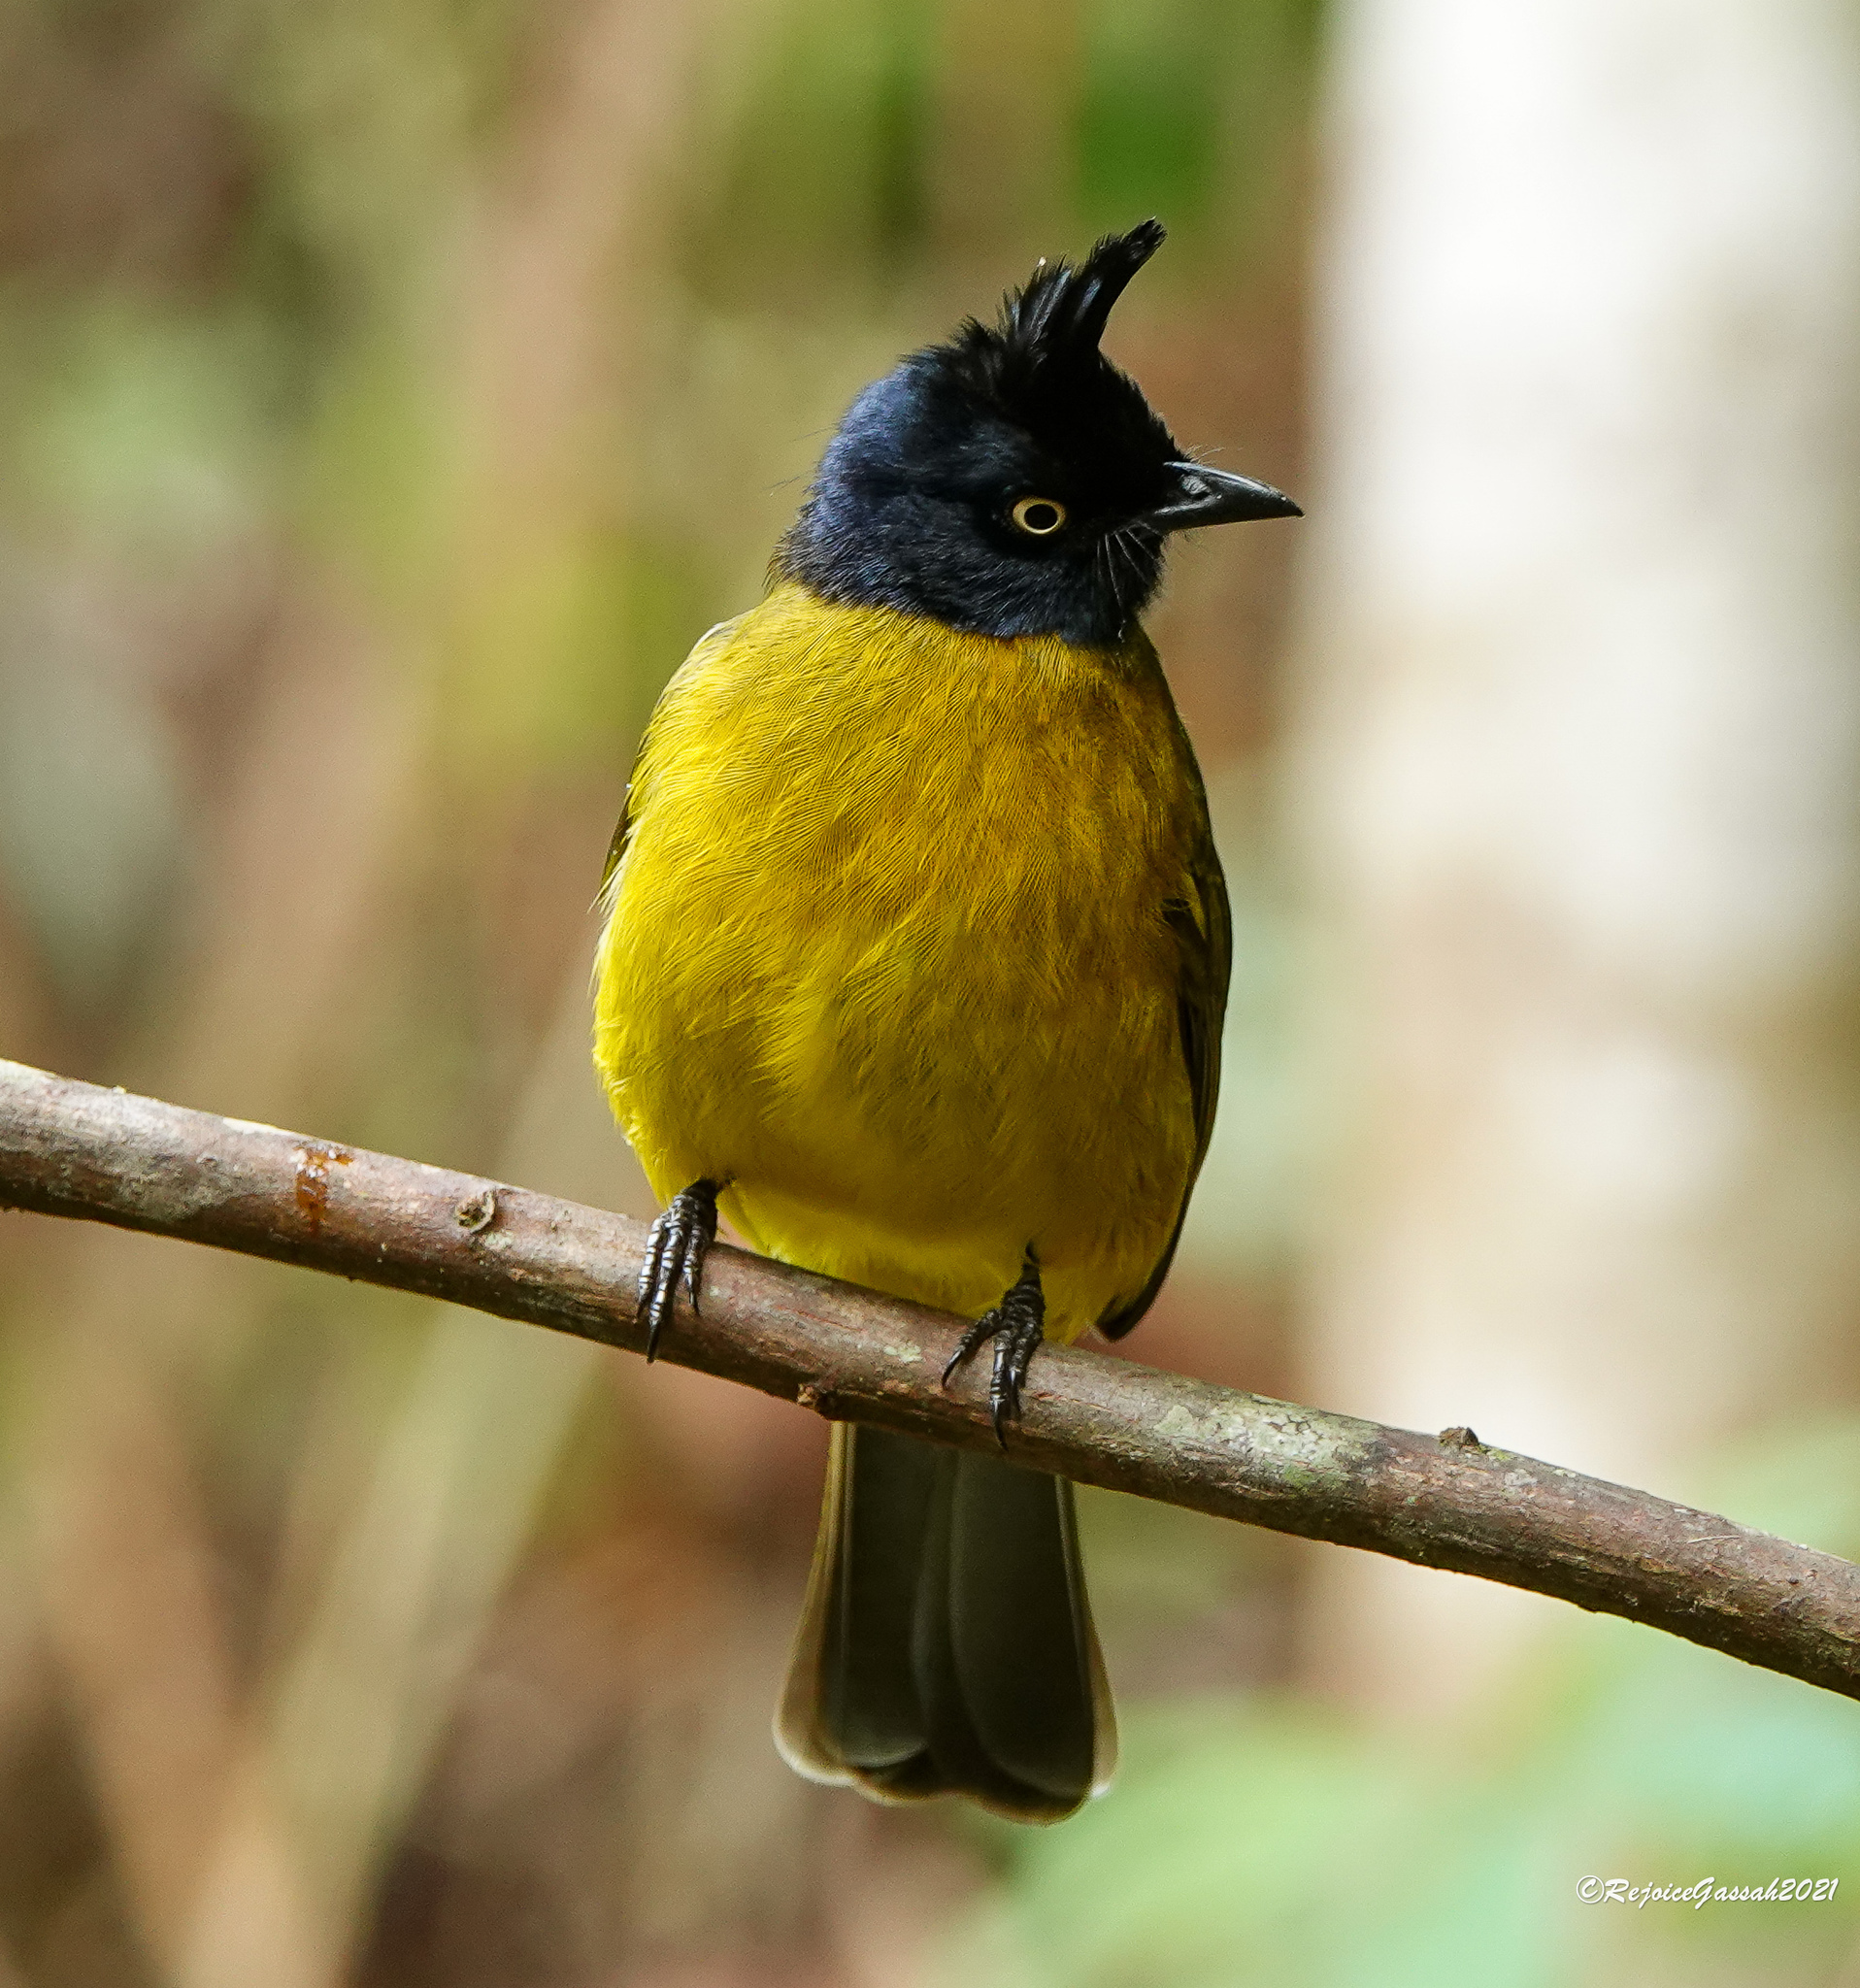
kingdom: Animalia
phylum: Chordata
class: Aves
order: Passeriformes
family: Pycnonotidae
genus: Pycnonotus
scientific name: Pycnonotus flaviventris
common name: Black-crested bulbul
